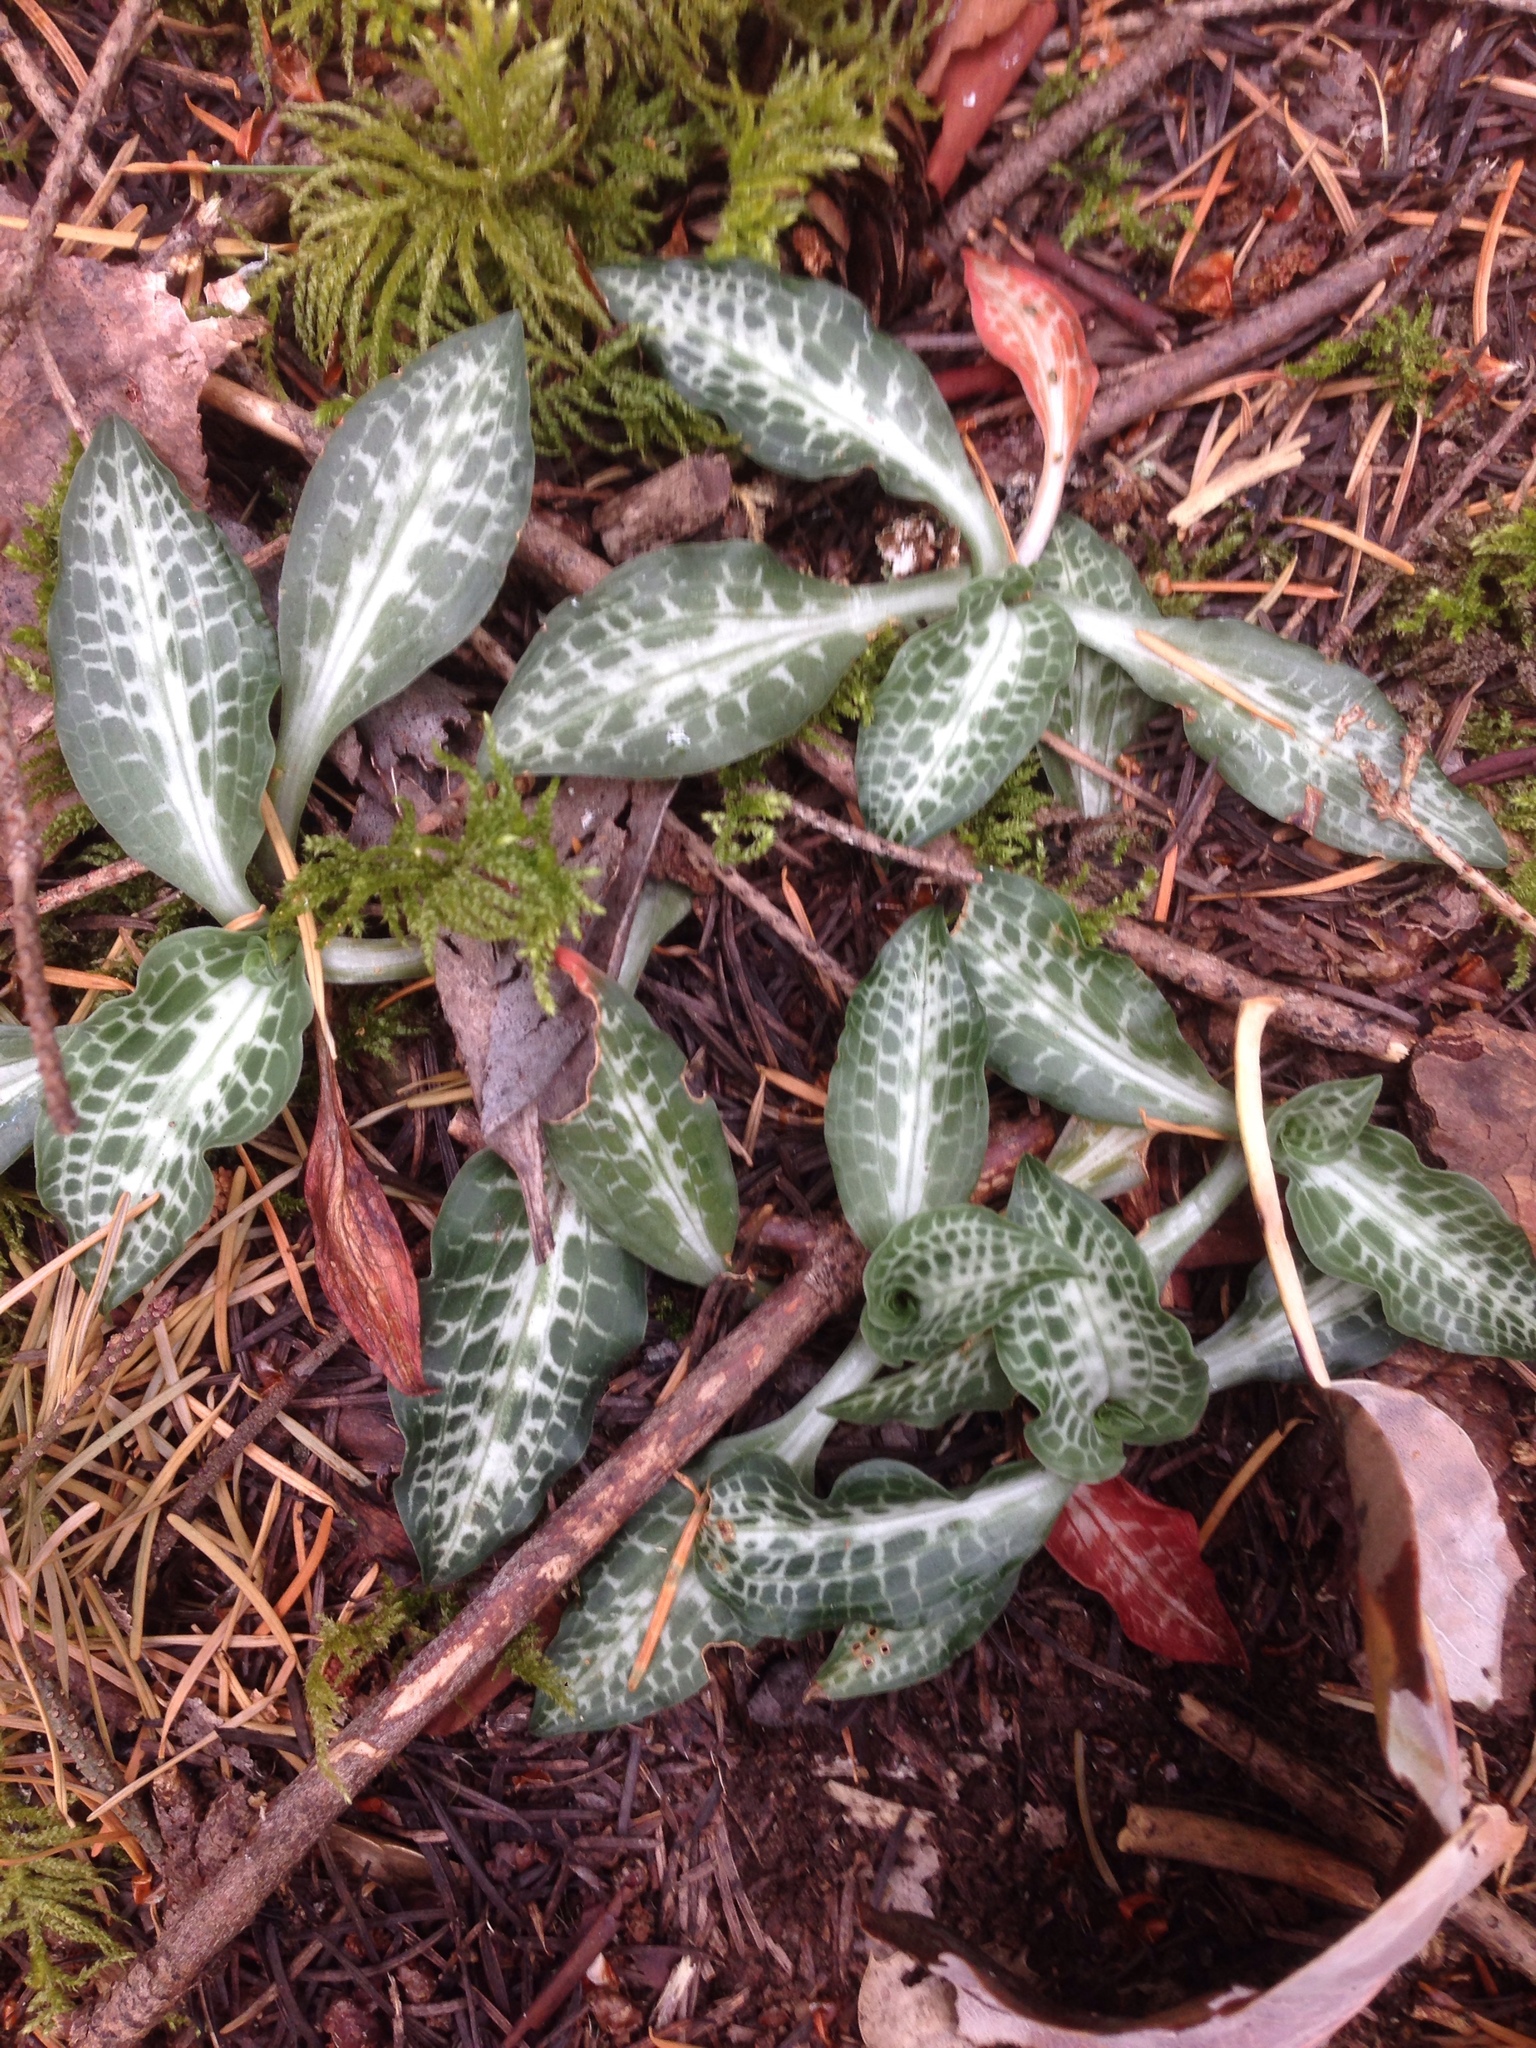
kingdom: Plantae
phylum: Tracheophyta
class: Liliopsida
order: Asparagales
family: Orchidaceae
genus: Goodyera
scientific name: Goodyera oblongifolia
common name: Giant rattlesnake-plantain
